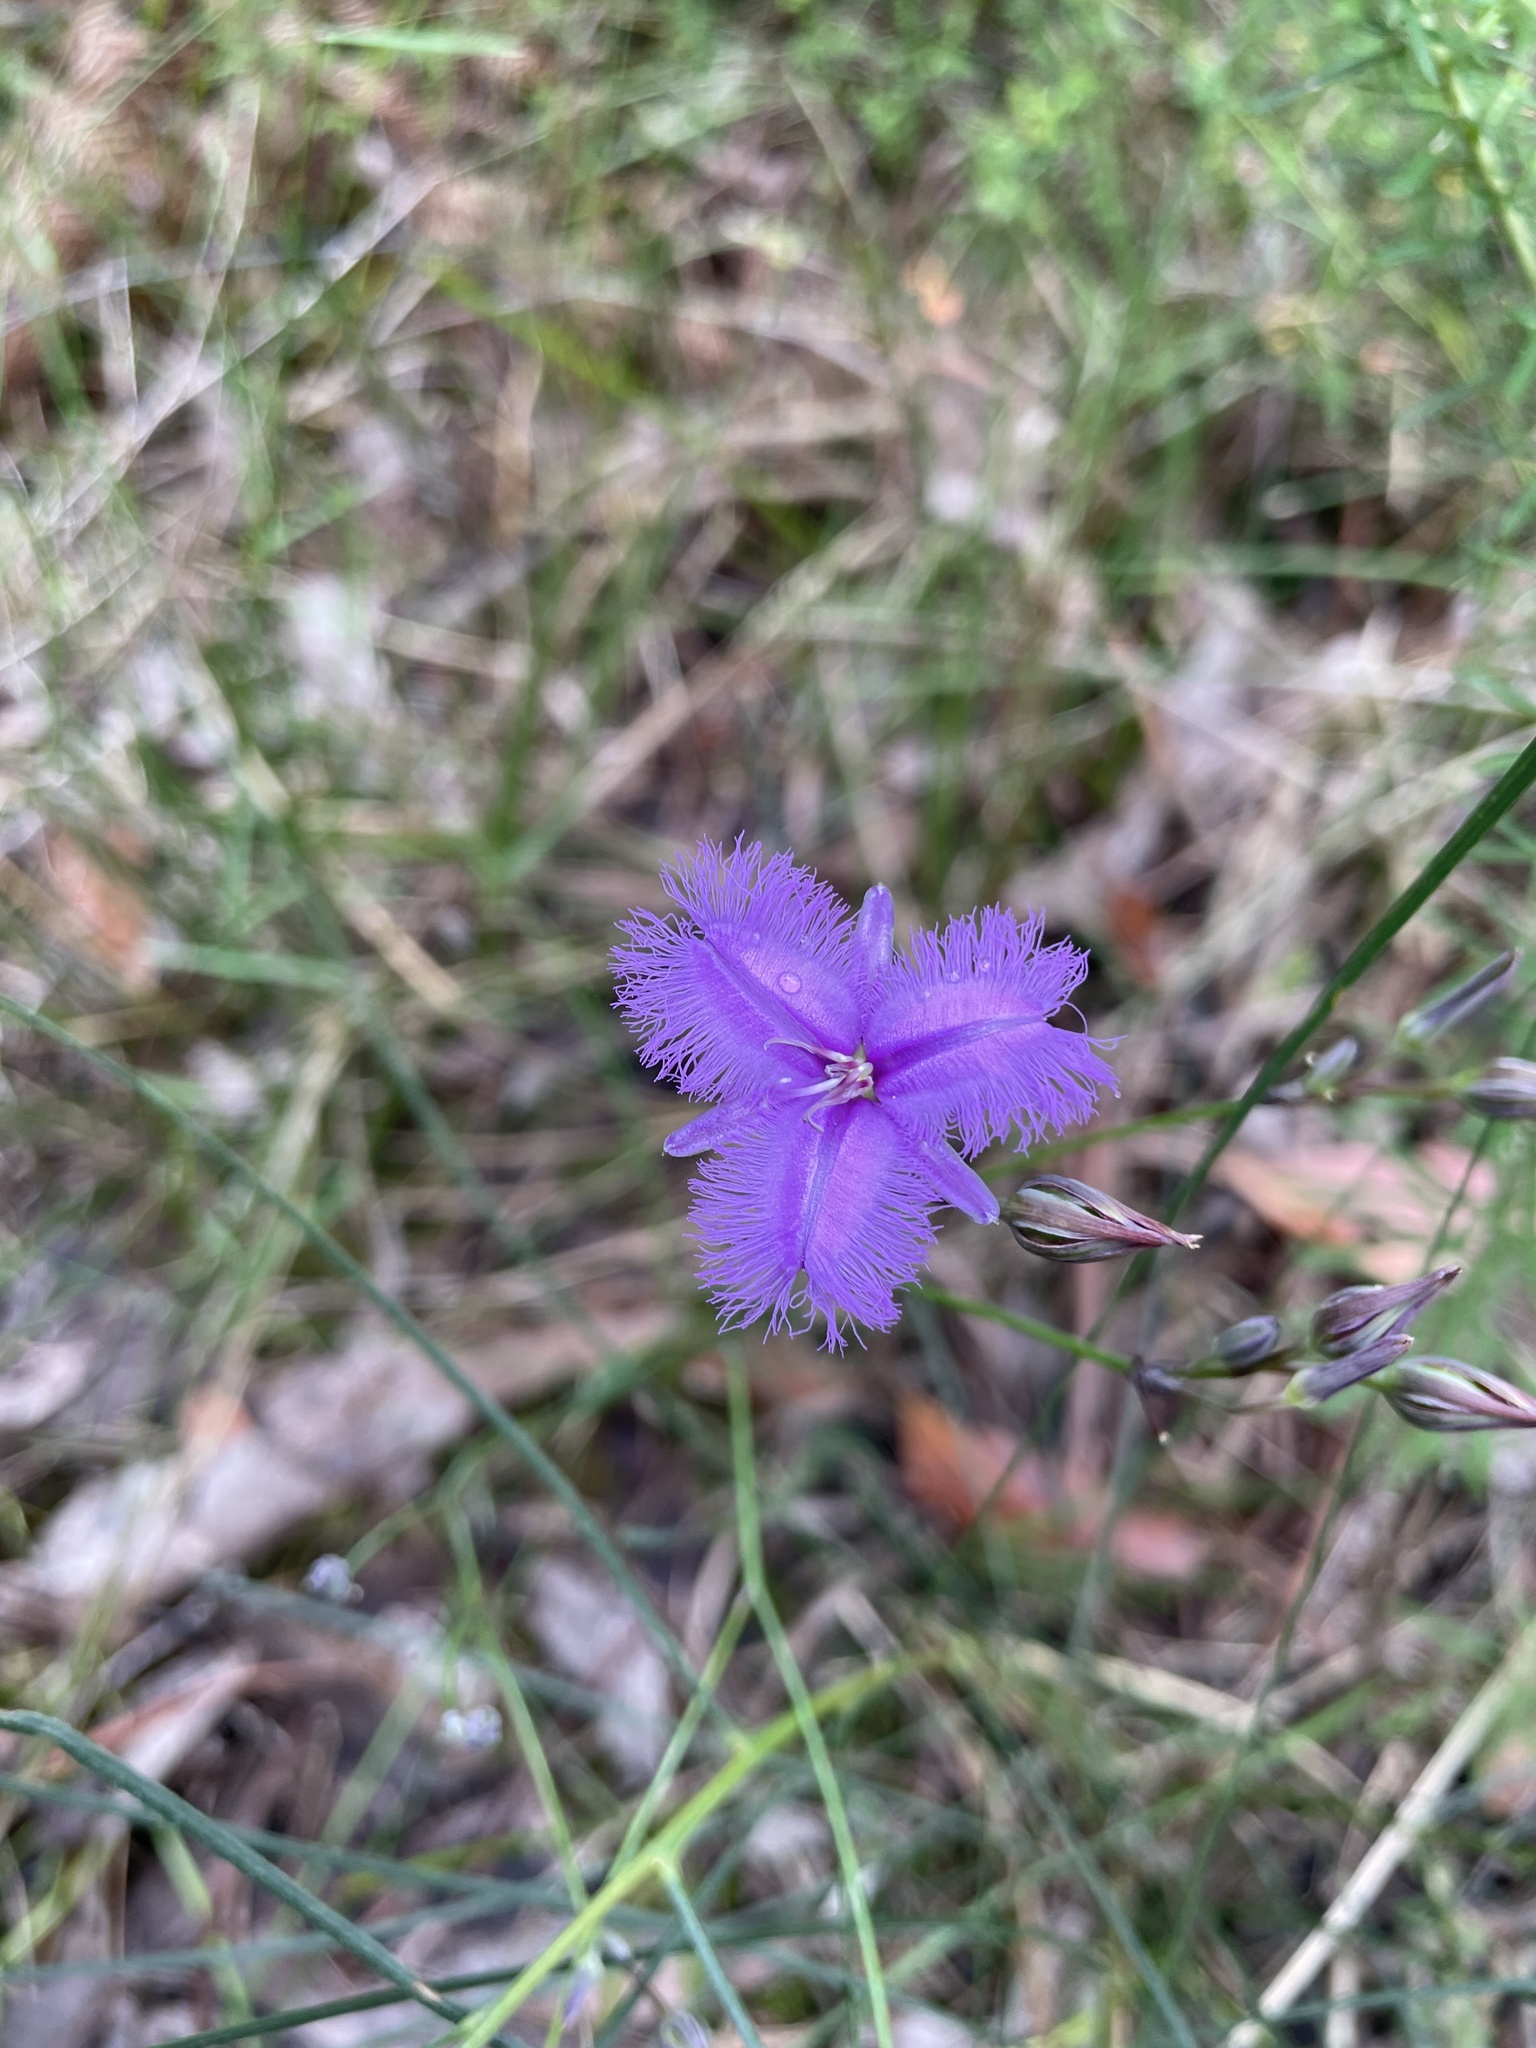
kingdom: Plantae
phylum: Tracheophyta
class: Liliopsida
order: Asparagales
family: Asparagaceae
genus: Thysanotus
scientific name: Thysanotus tuberosus
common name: Common fringed-lily
